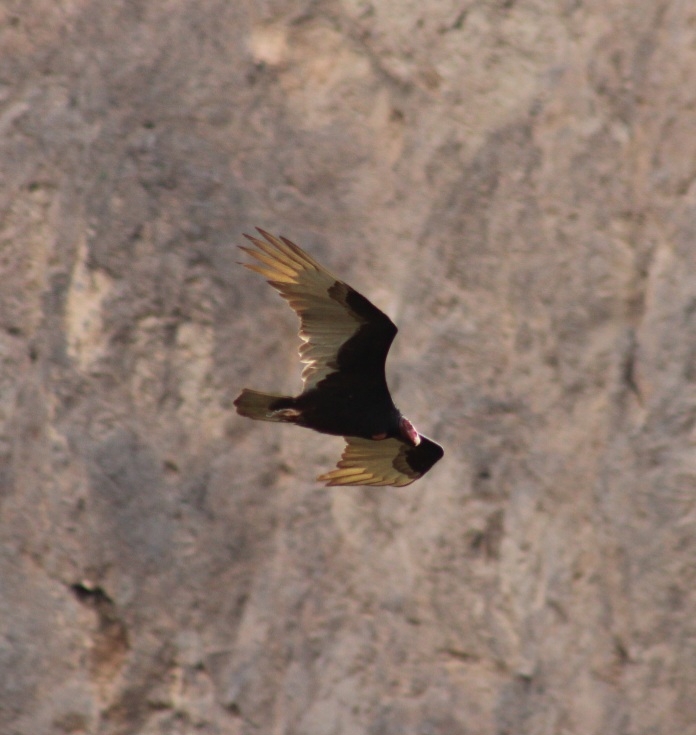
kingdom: Animalia
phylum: Chordata
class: Aves
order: Accipitriformes
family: Cathartidae
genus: Cathartes
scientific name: Cathartes aura
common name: Turkey vulture
